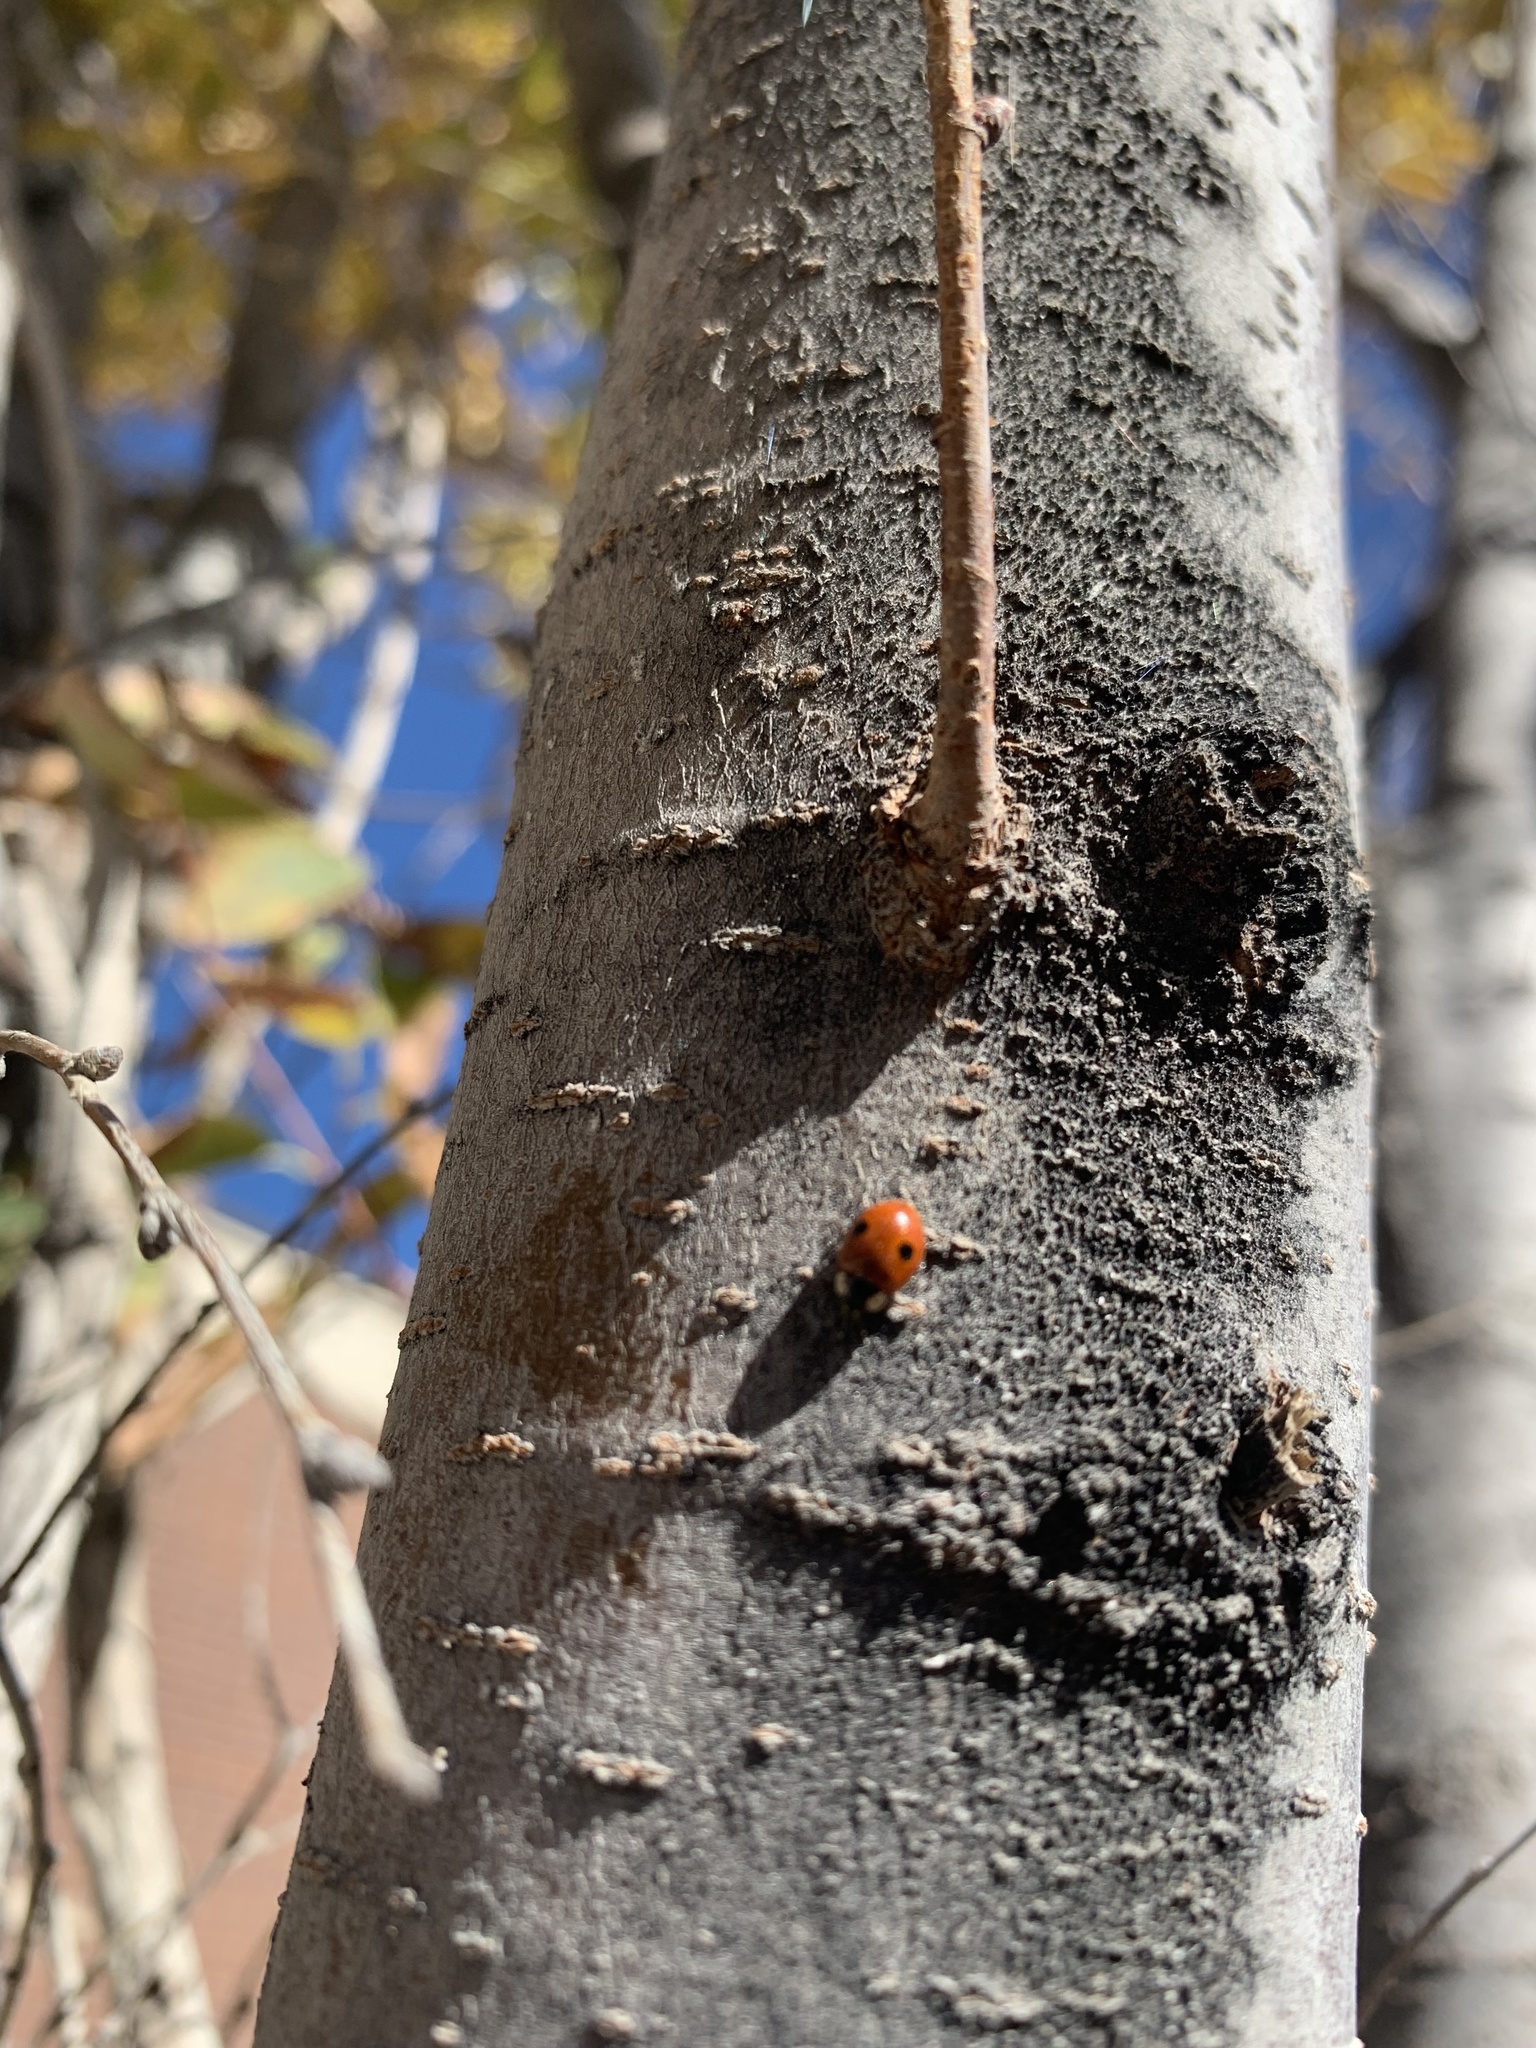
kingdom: Animalia
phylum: Arthropoda
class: Insecta
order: Coleoptera
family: Coccinellidae
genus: Adalia
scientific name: Adalia bipunctata
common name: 2-spot ladybird
